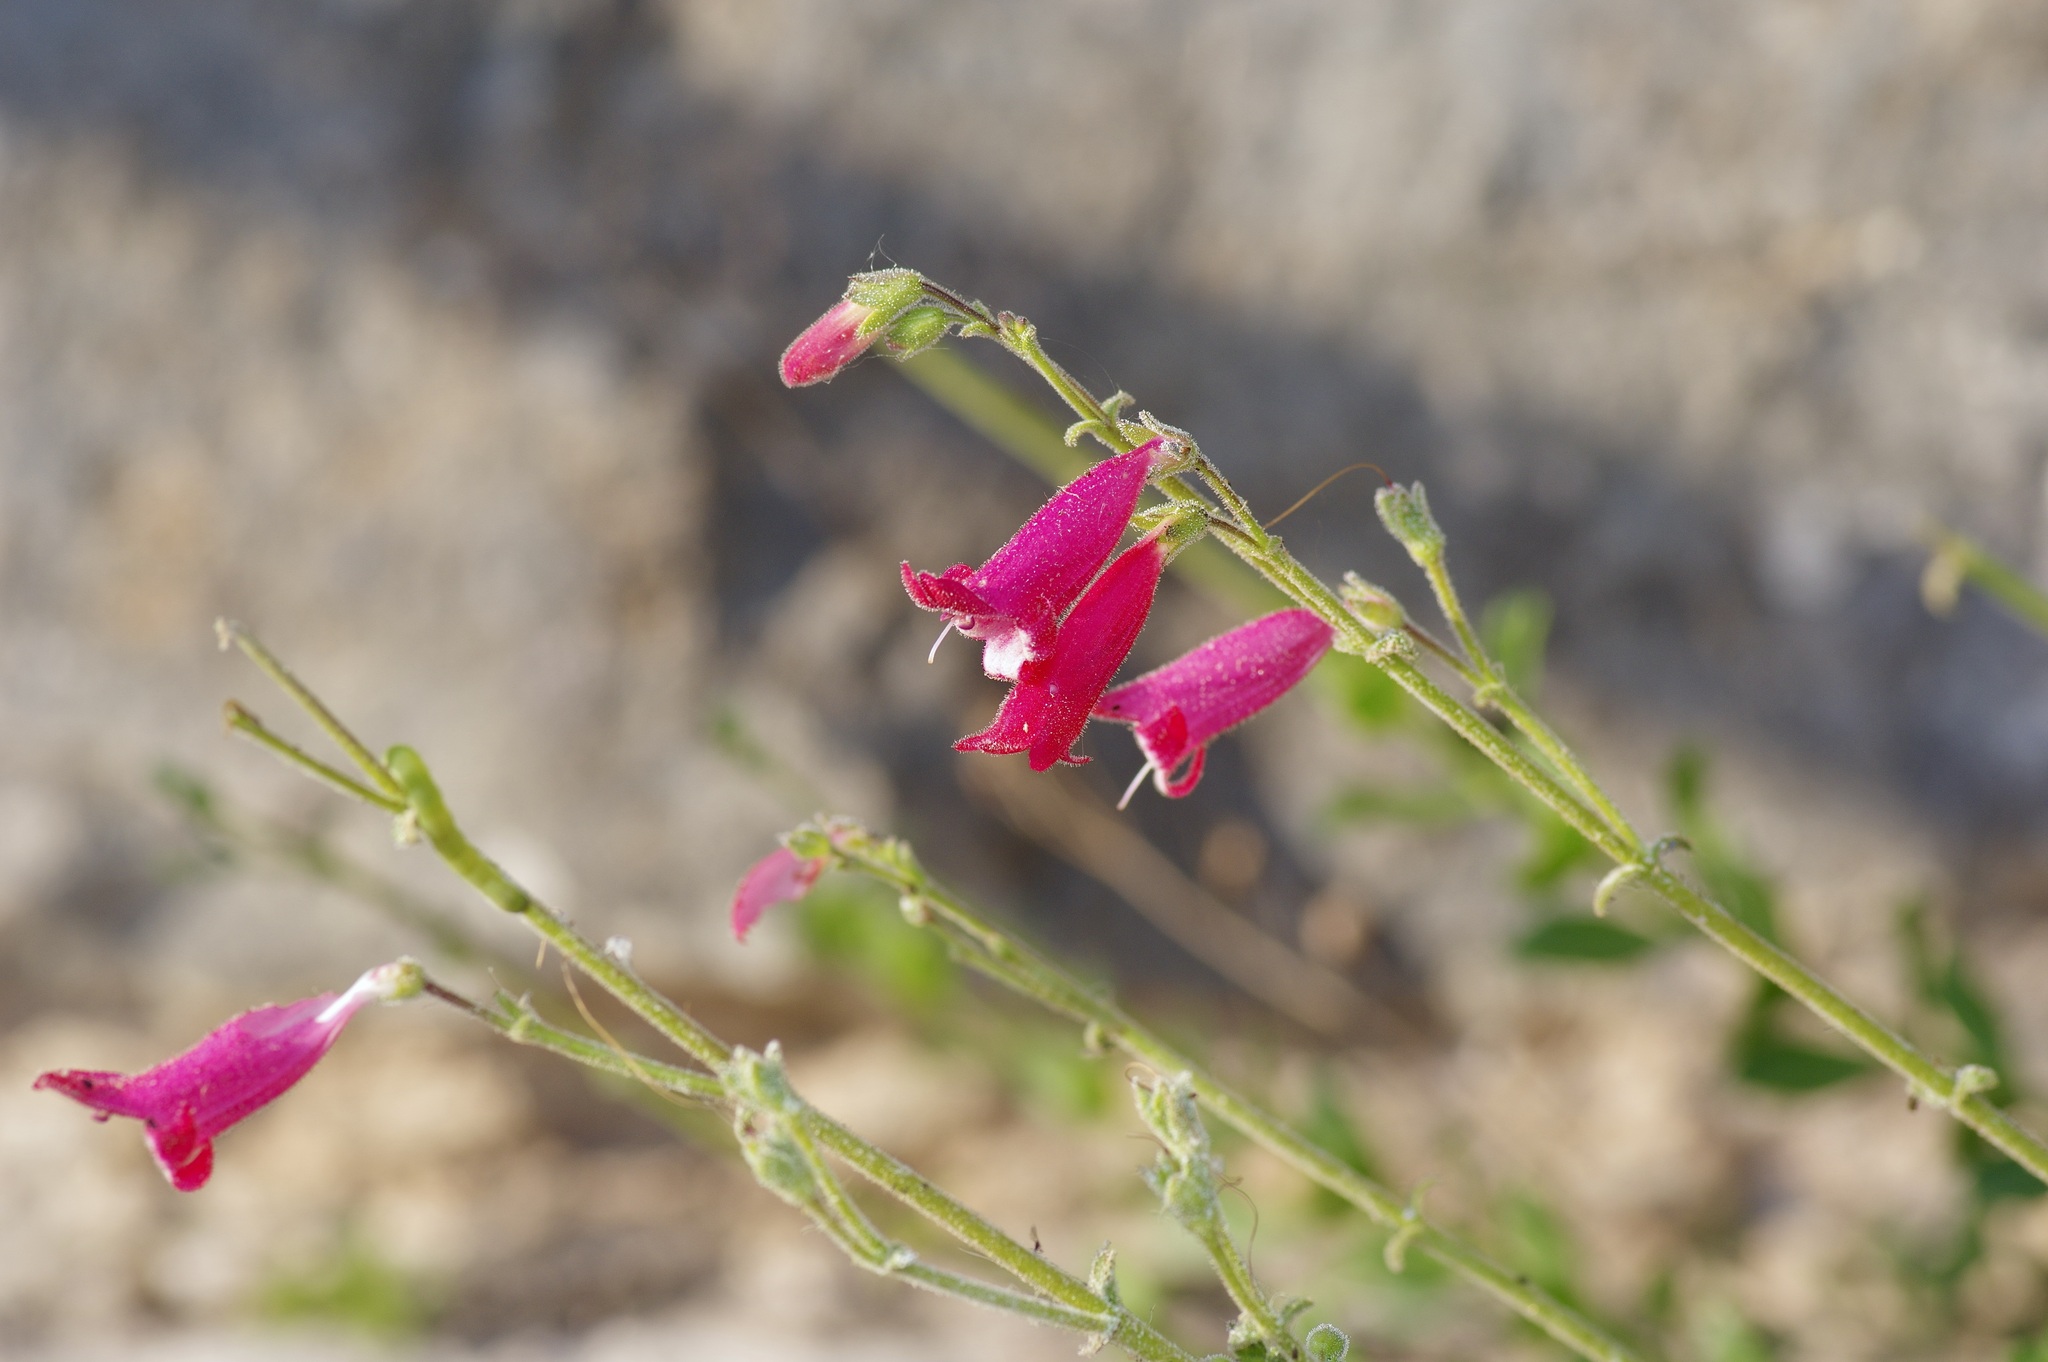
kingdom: Plantae
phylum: Tracheophyta
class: Magnoliopsida
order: Lamiales
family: Plantaginaceae
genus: Penstemon
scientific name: Penstemon baccharifolius
